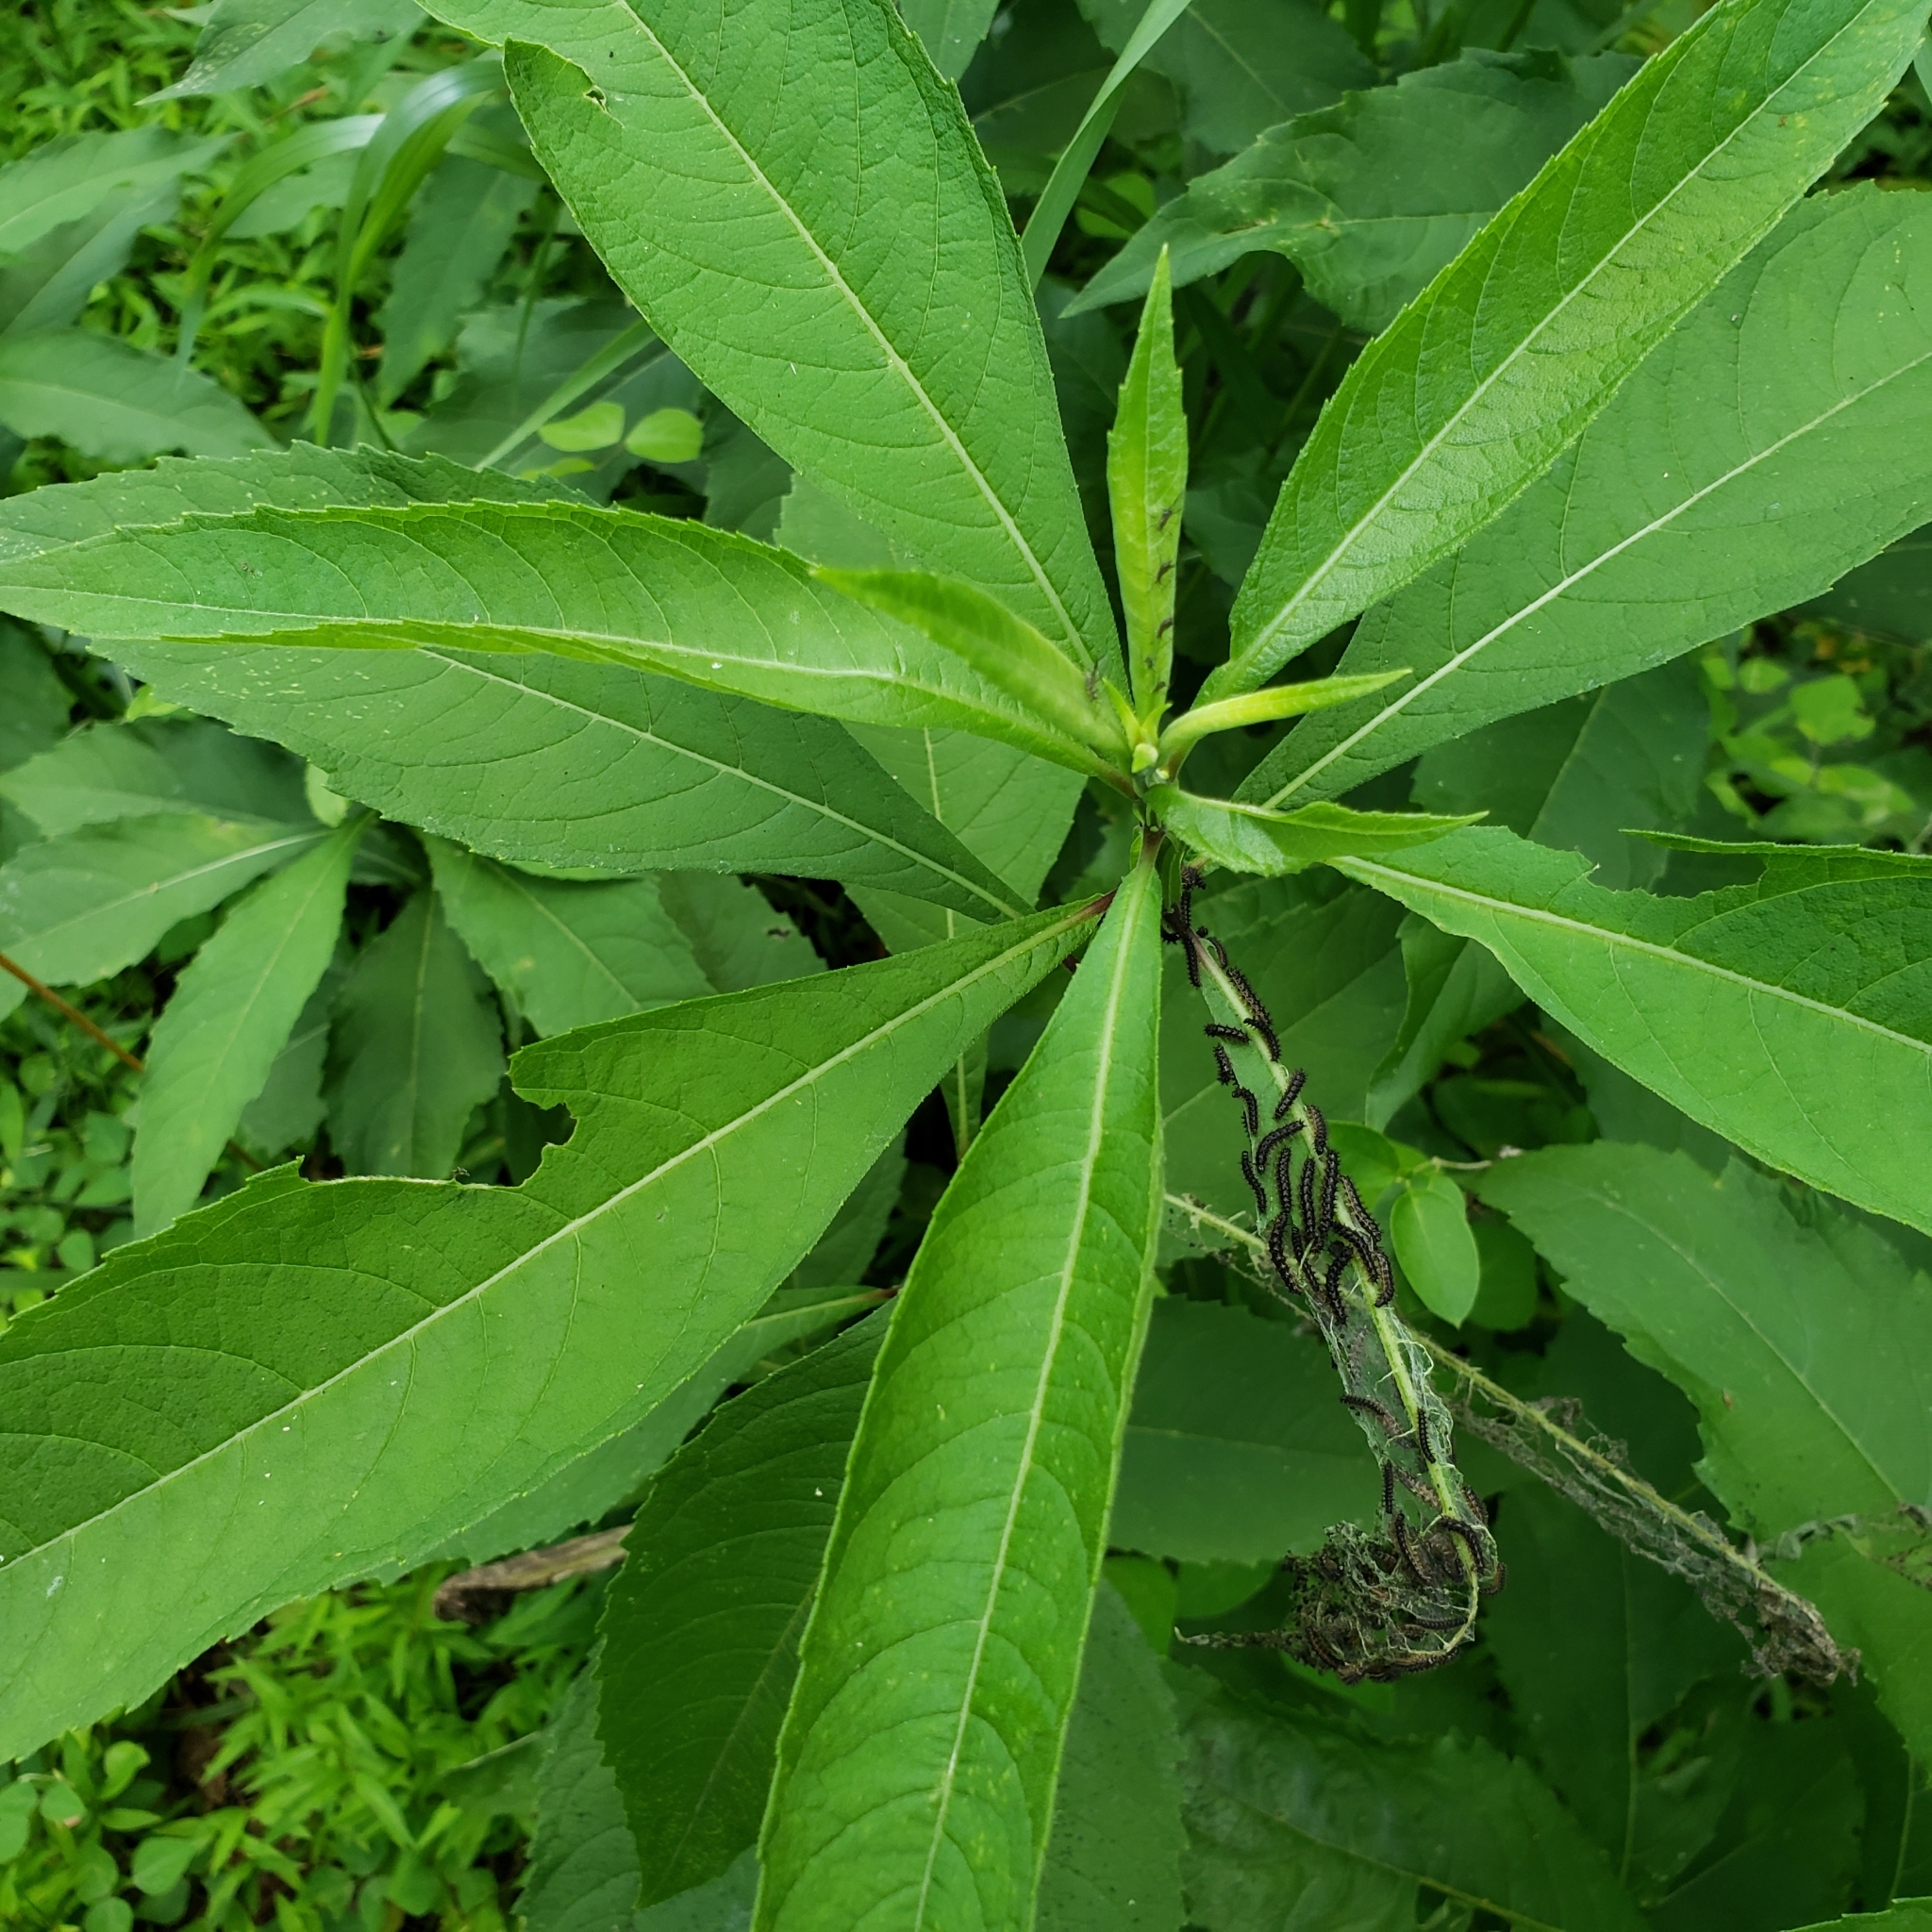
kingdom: Animalia
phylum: Arthropoda
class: Insecta
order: Lepidoptera
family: Nymphalidae
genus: Chlosyne
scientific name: Chlosyne nycteis
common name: Silvery checkerspot
